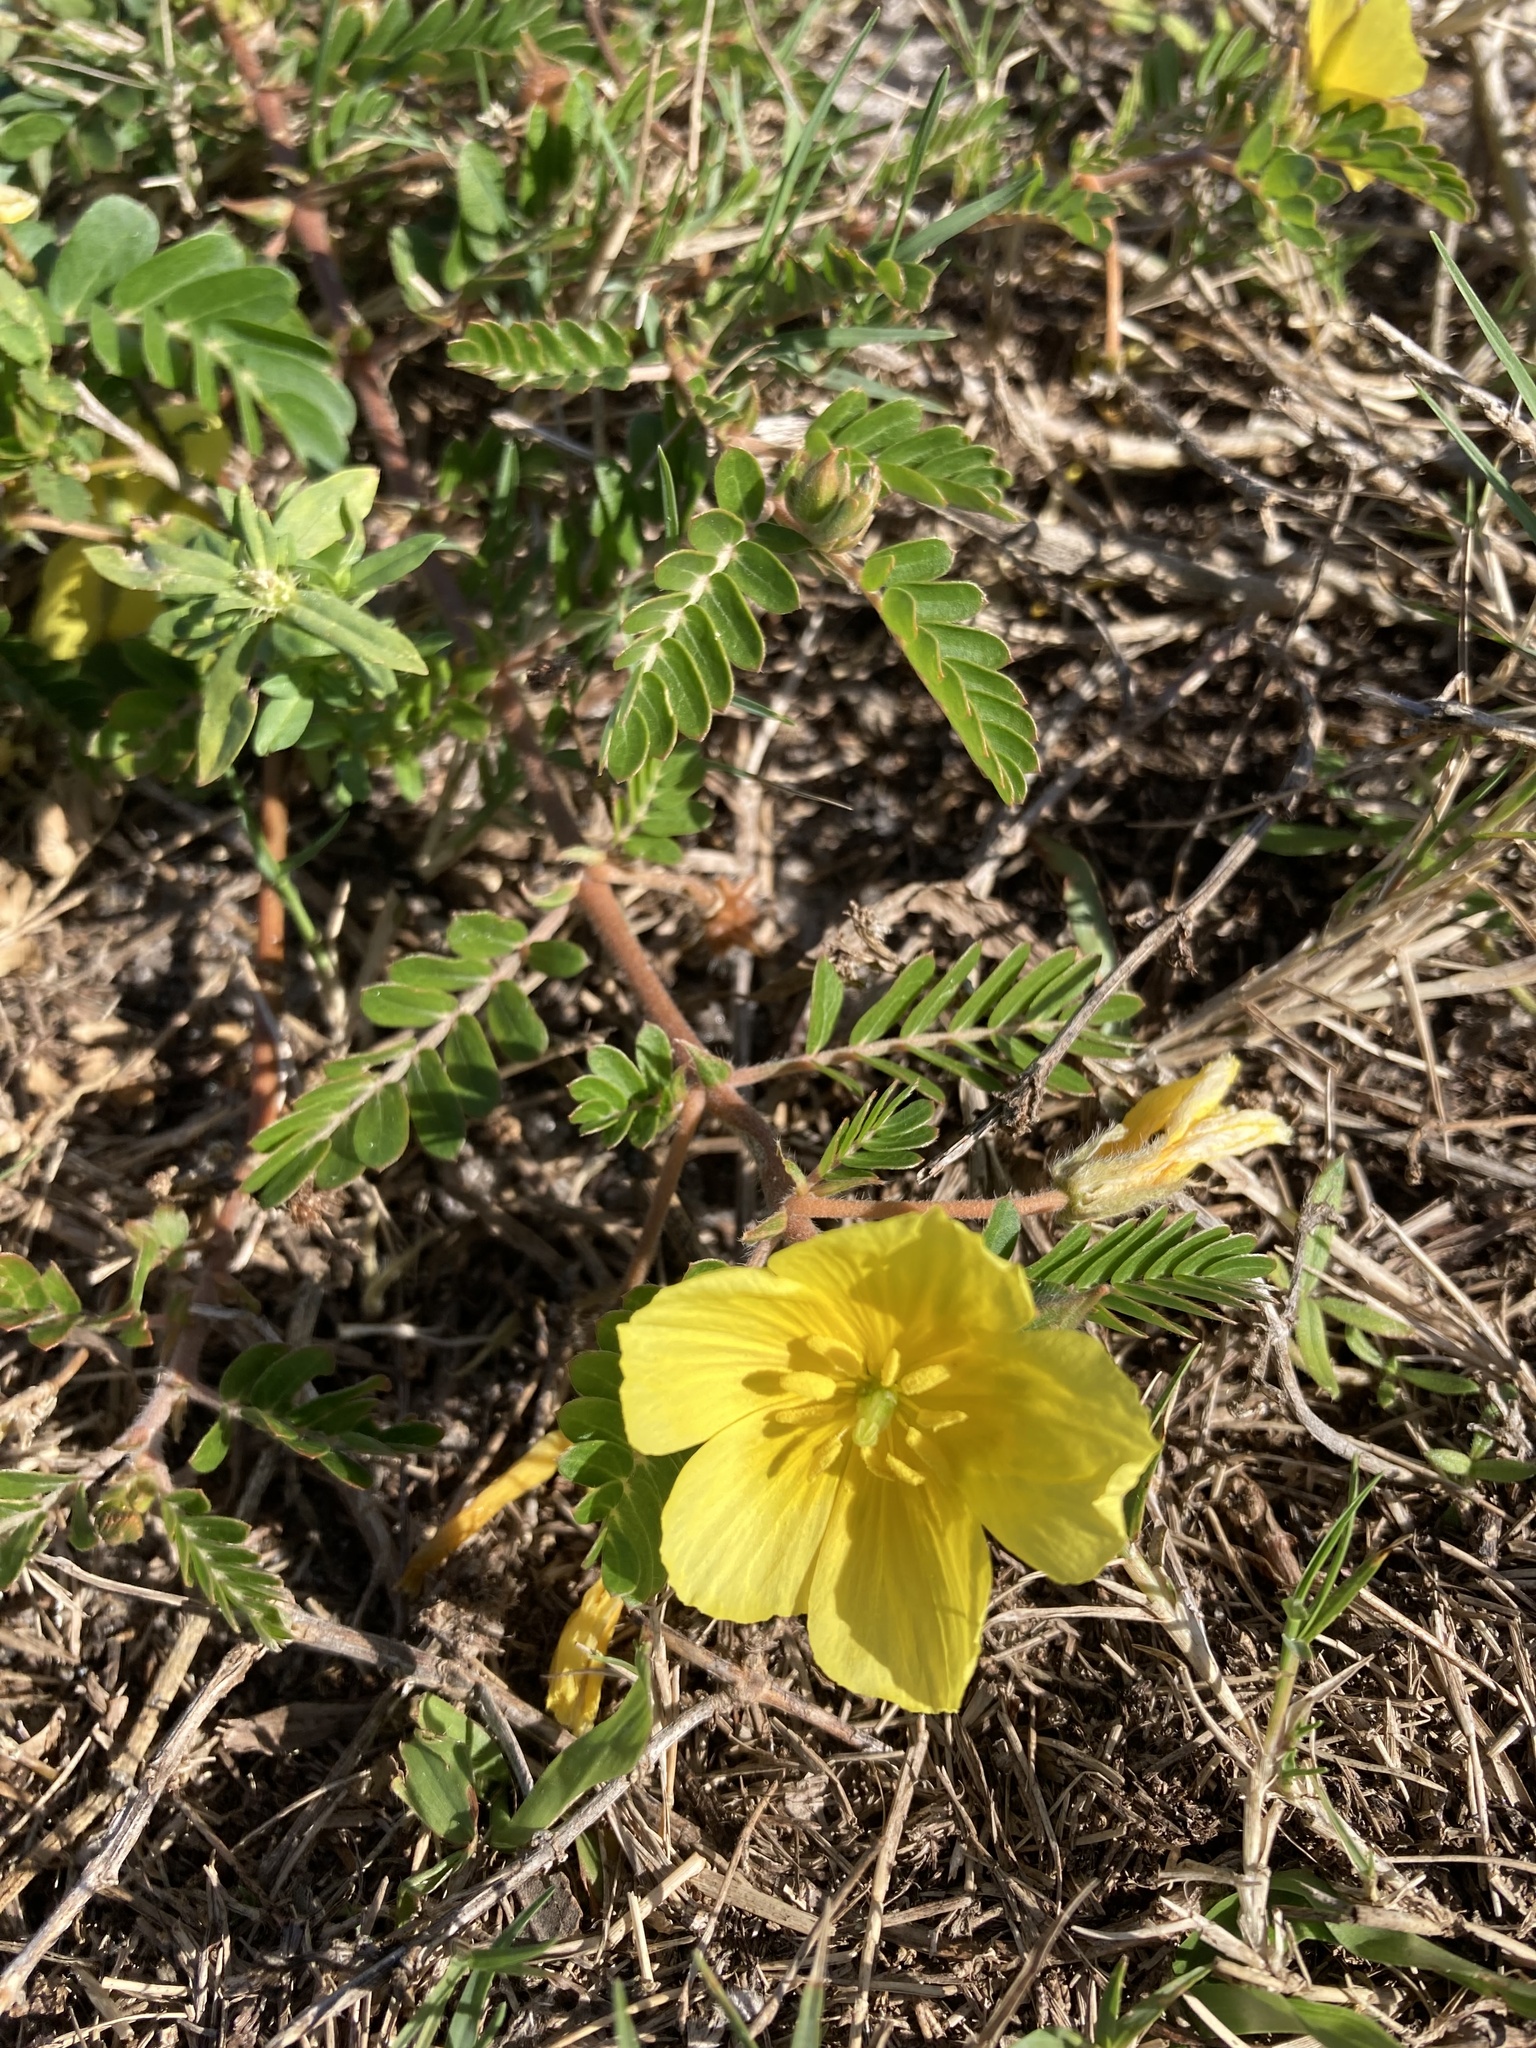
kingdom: Plantae
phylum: Tracheophyta
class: Magnoliopsida
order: Zygophyllales
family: Zygophyllaceae
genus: Tribulus
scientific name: Tribulus cistoides
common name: Jamaican feverplant
